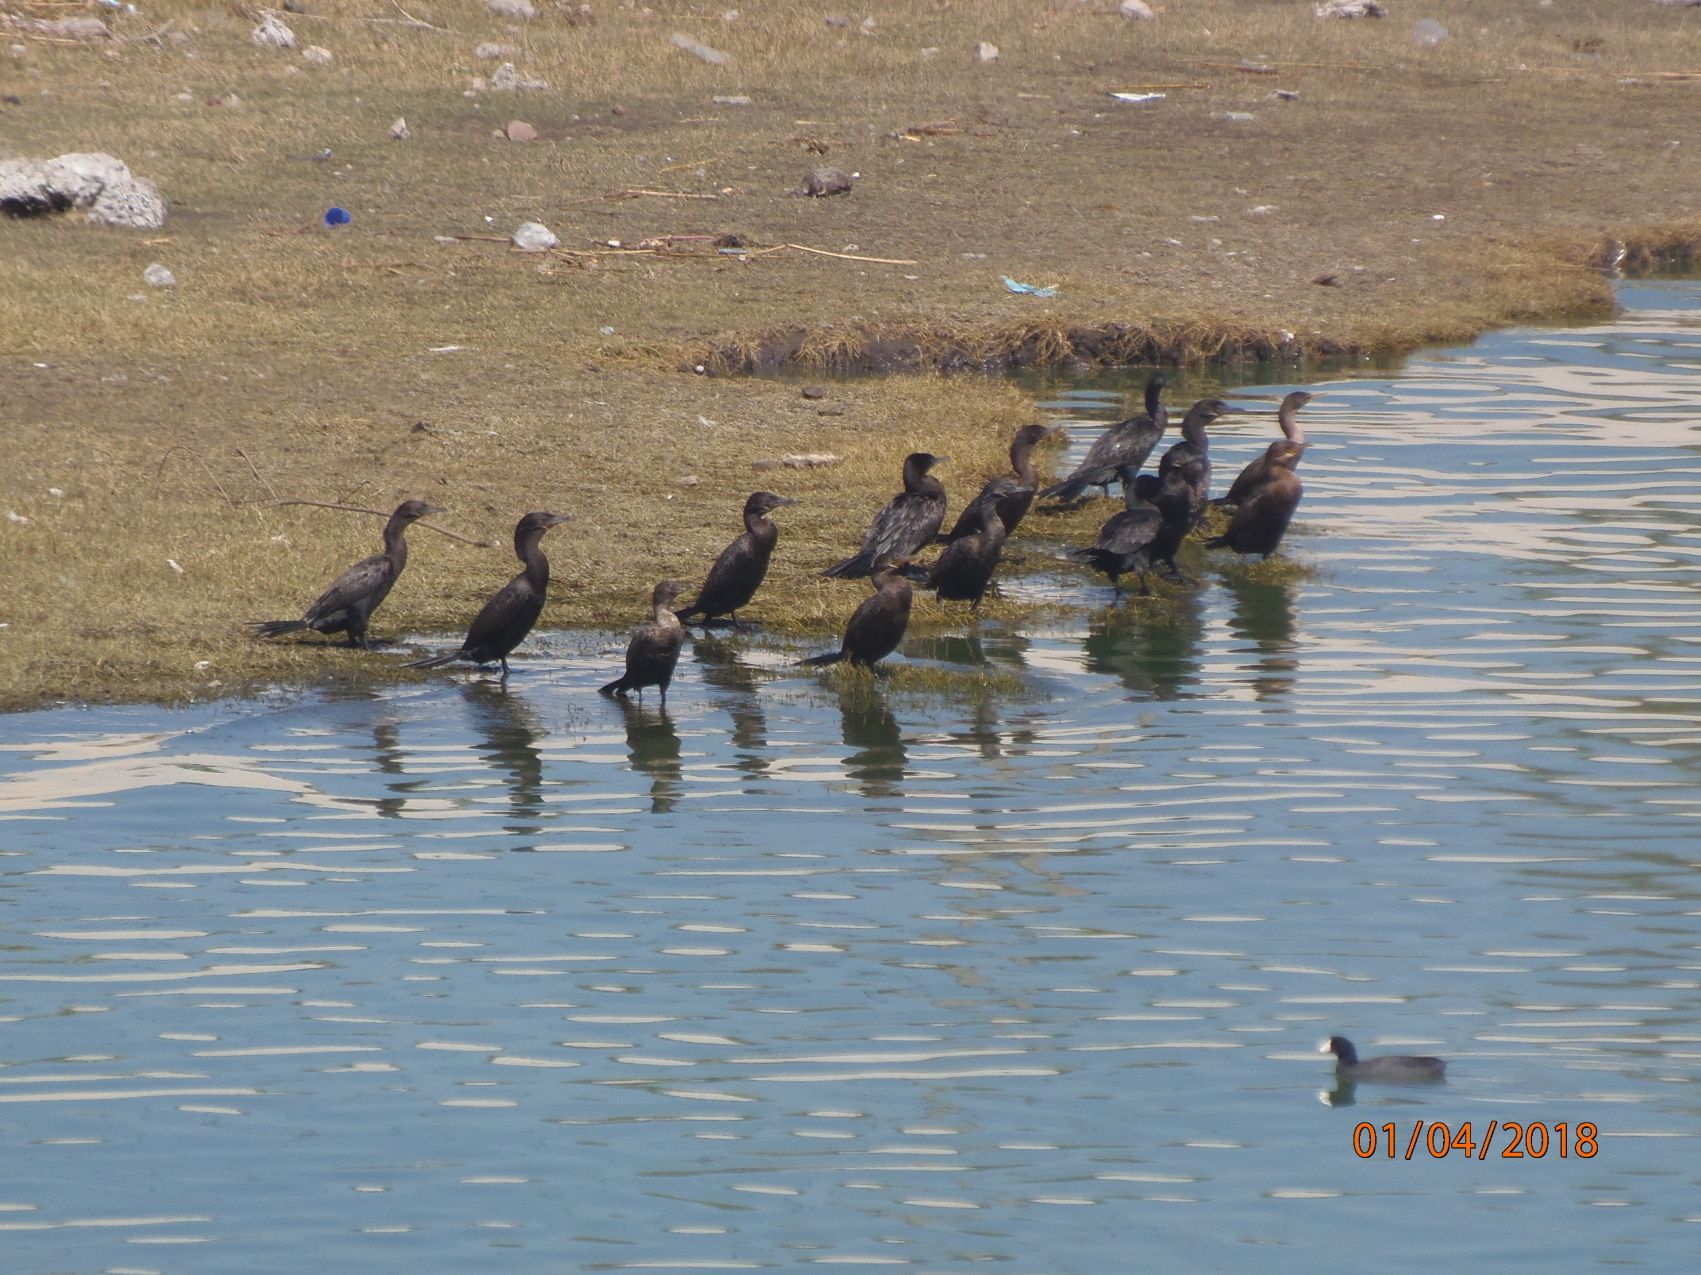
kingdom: Animalia
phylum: Chordata
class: Aves
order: Suliformes
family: Phalacrocoracidae
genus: Phalacrocorax
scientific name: Phalacrocorax brasilianus
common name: Neotropic cormorant
